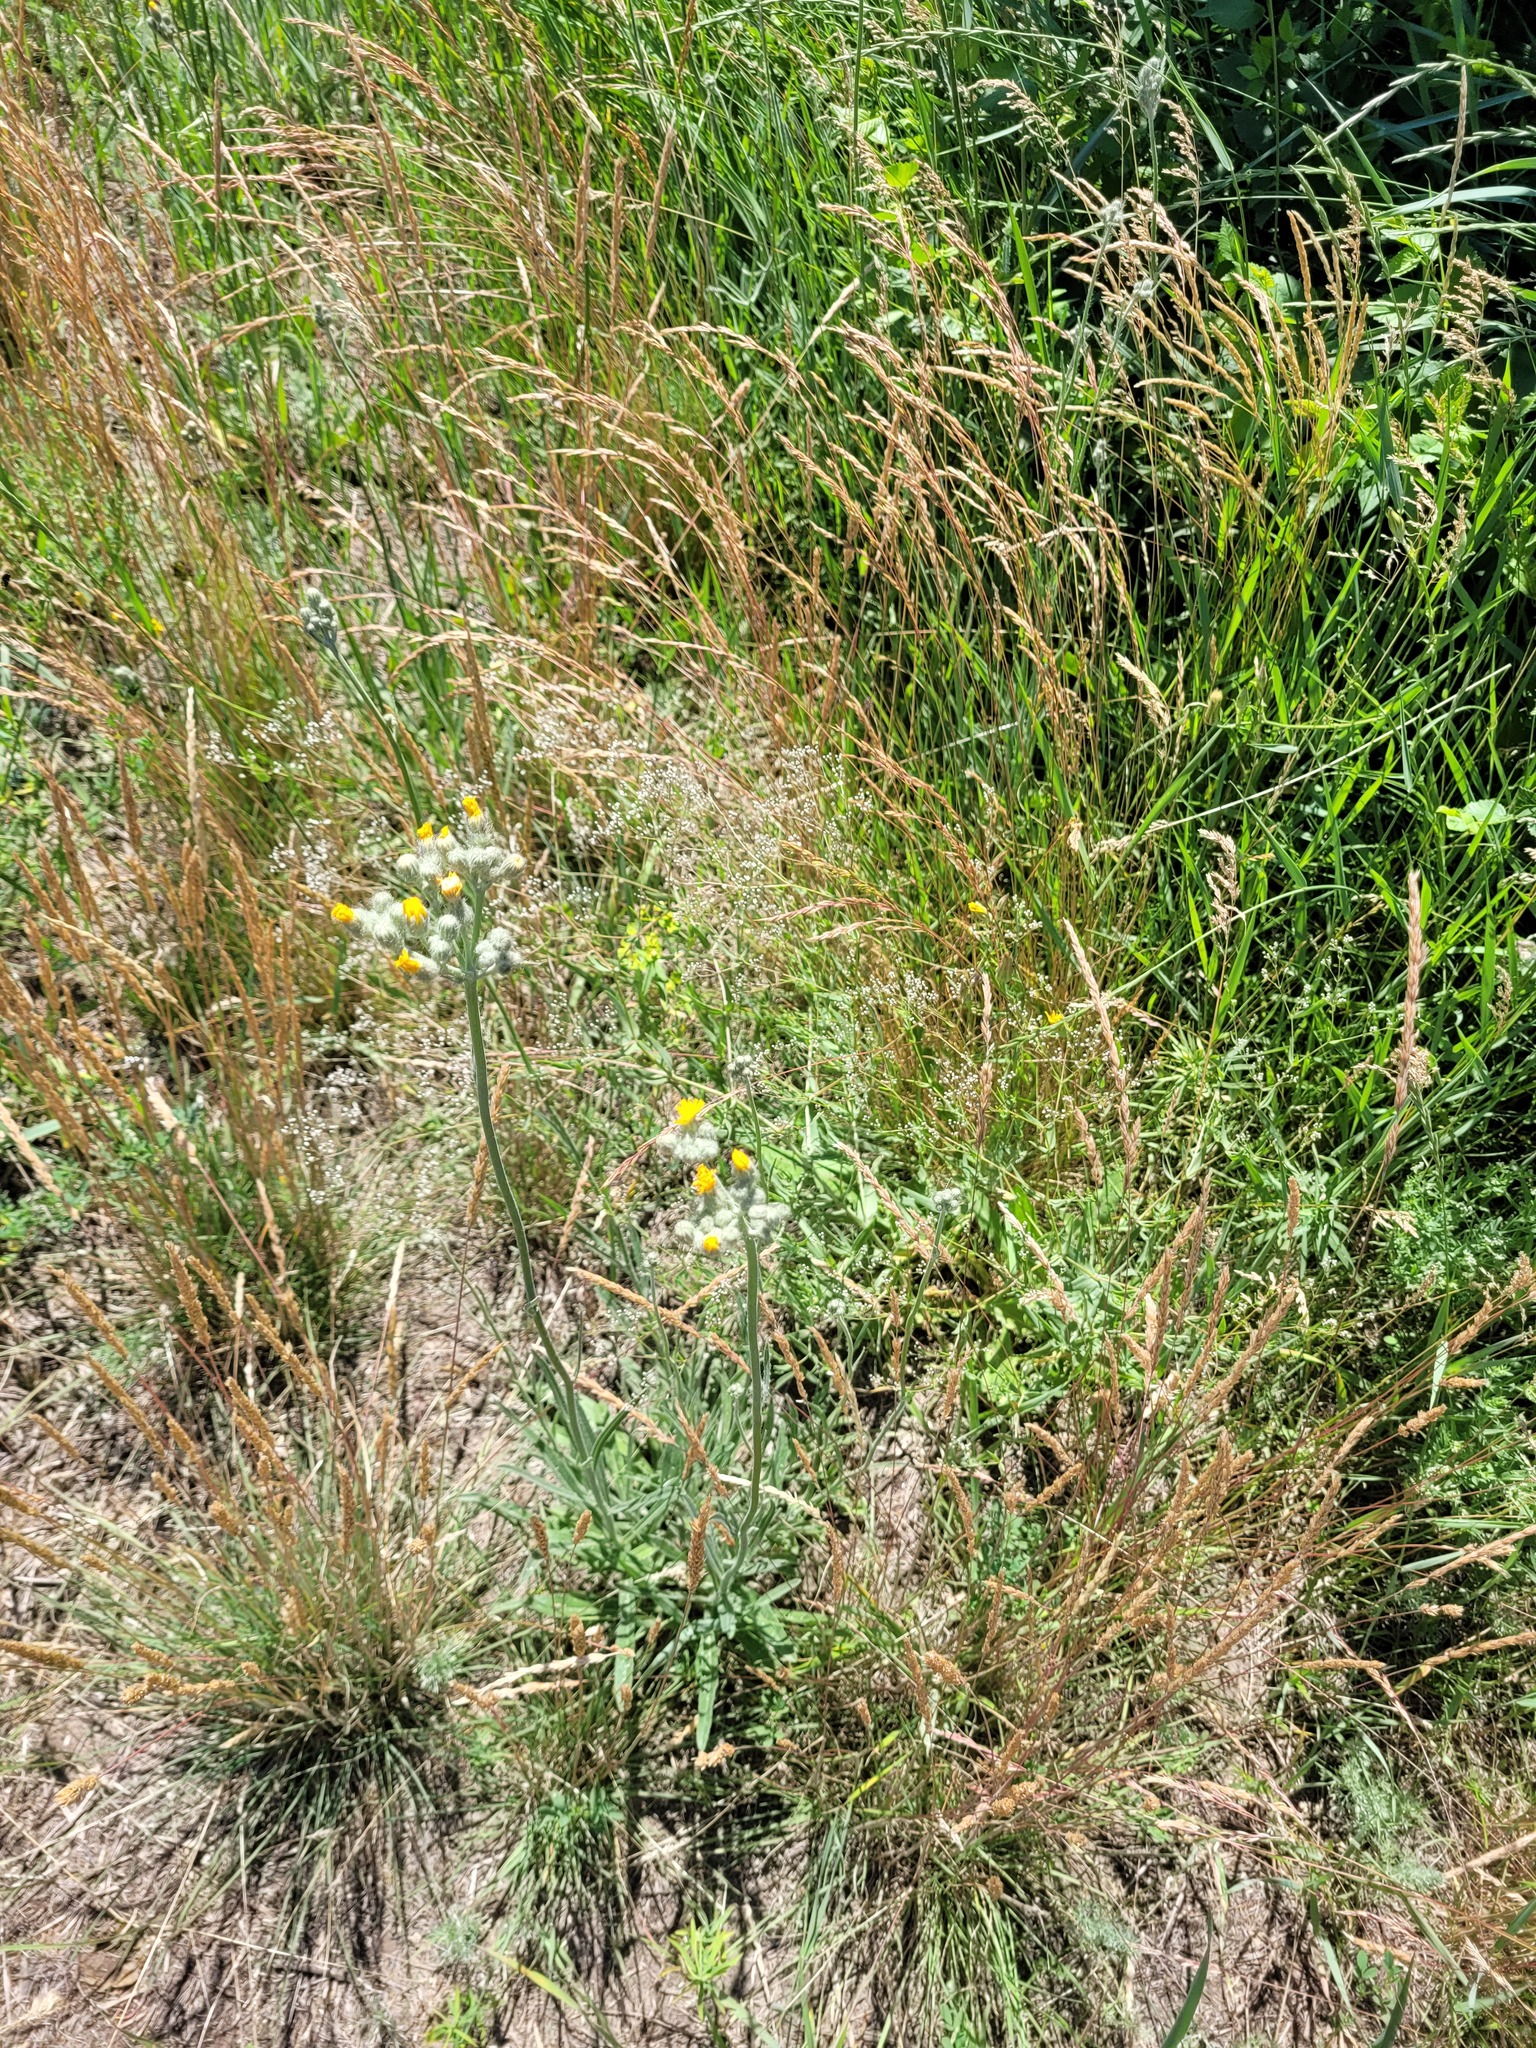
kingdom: Plantae
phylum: Tracheophyta
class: Magnoliopsida
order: Asterales
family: Asteraceae
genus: Pilosella
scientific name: Pilosella echioides
